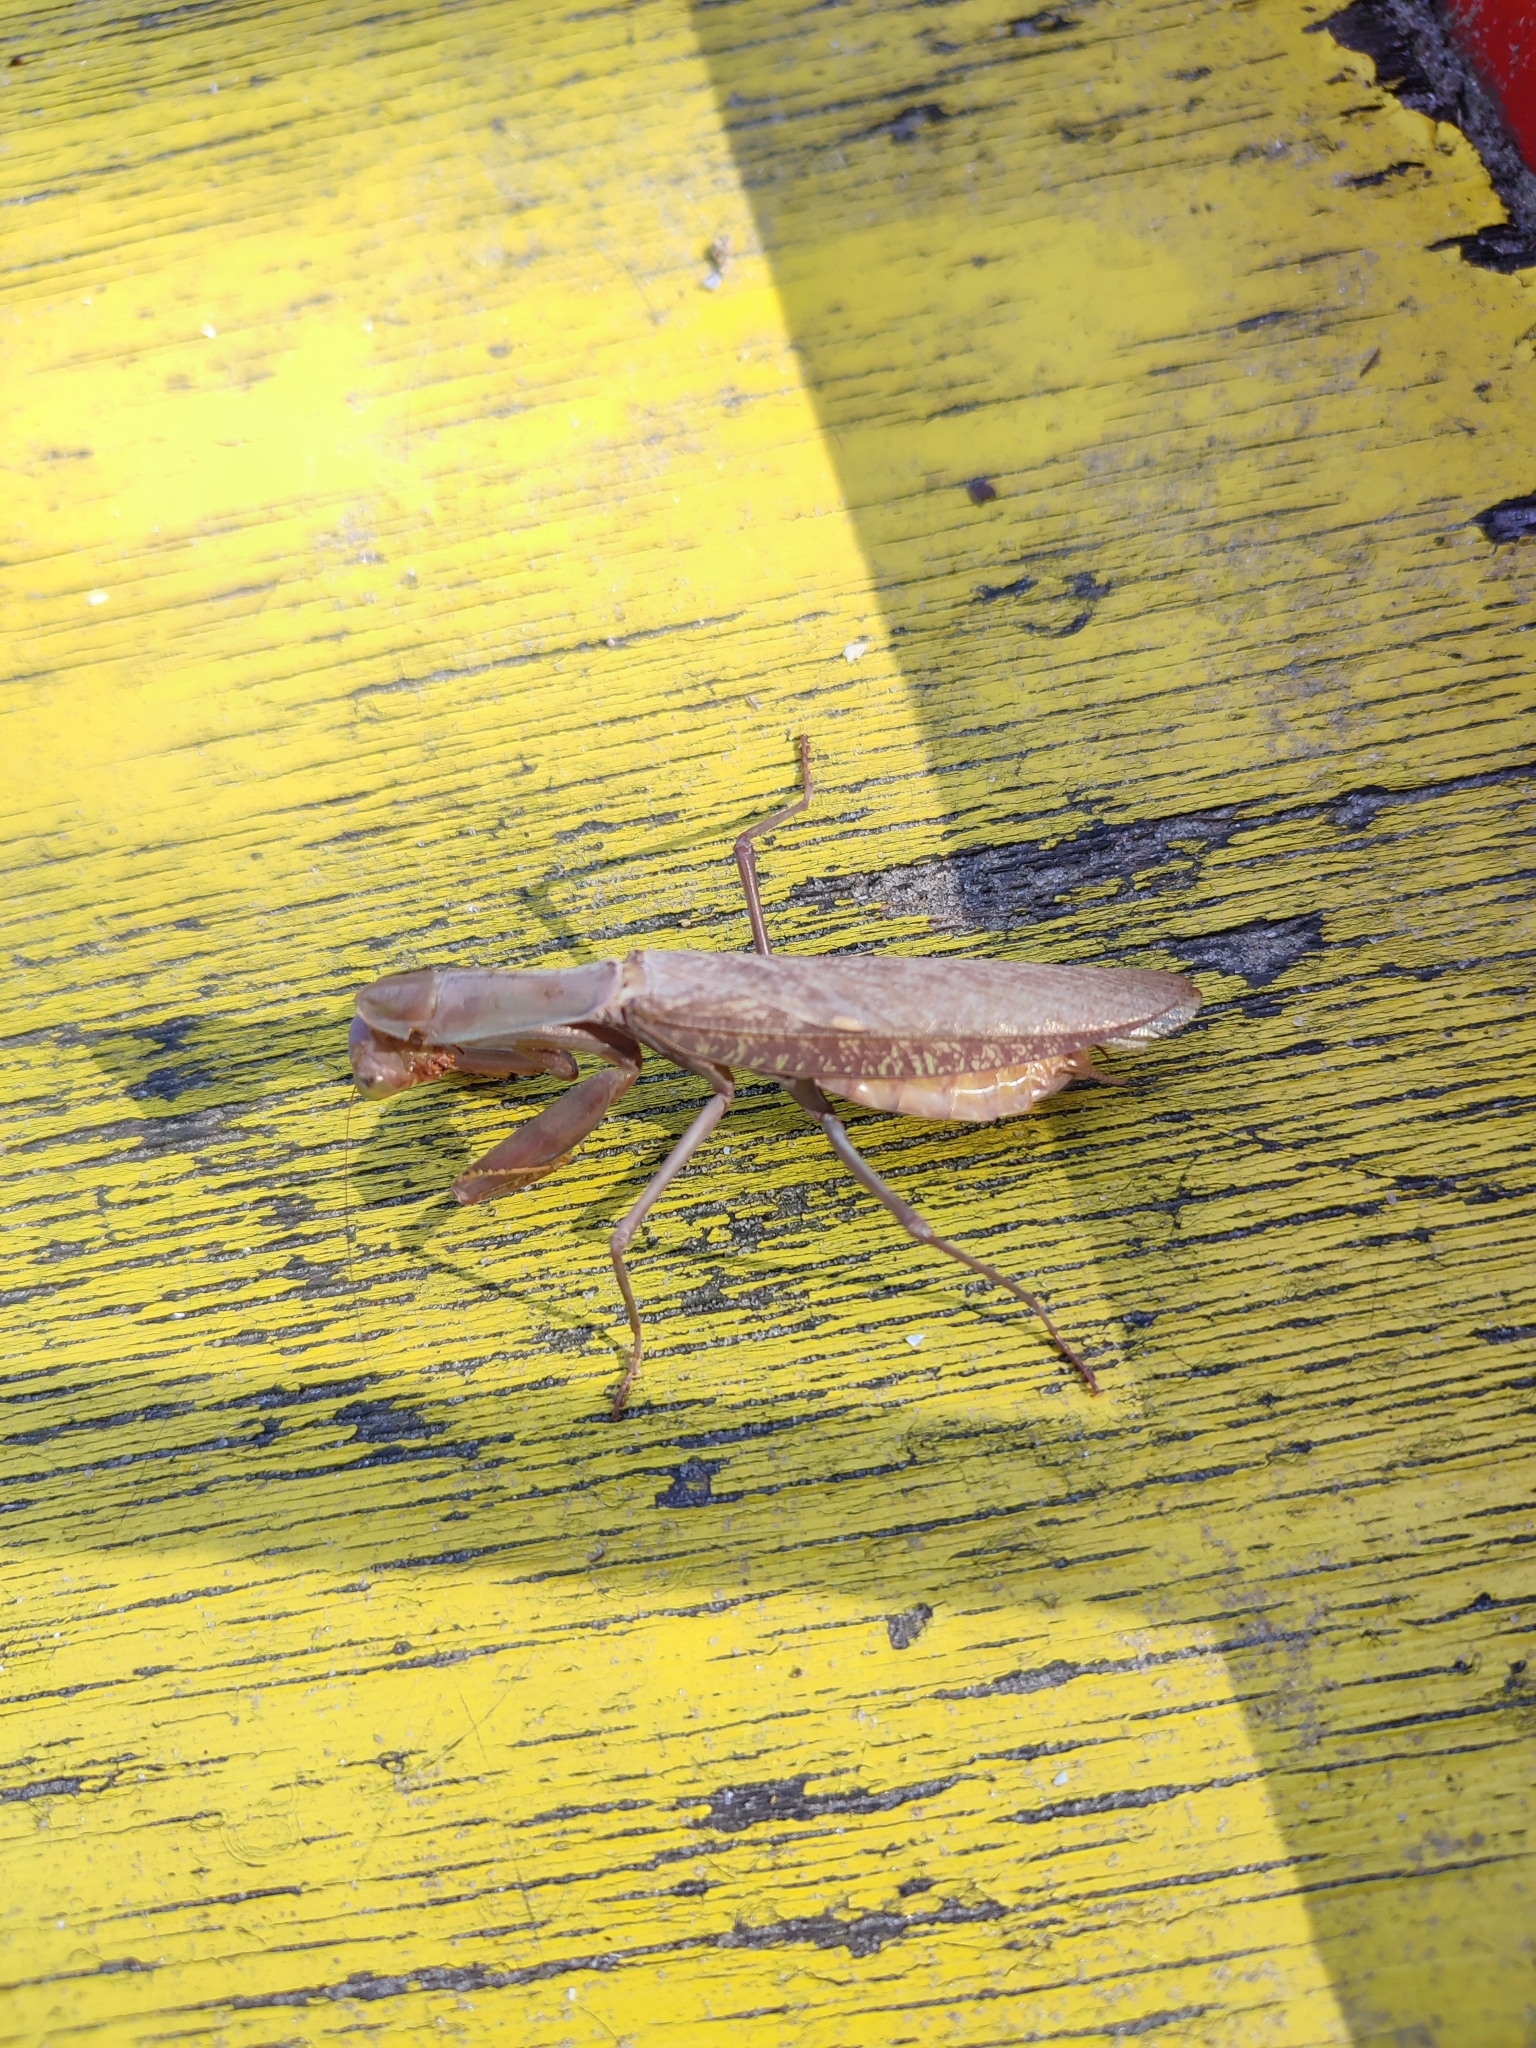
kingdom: Animalia
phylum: Arthropoda
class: Insecta
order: Mantodea
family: Mantidae
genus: Hierodula
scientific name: Hierodula transcaucasica
